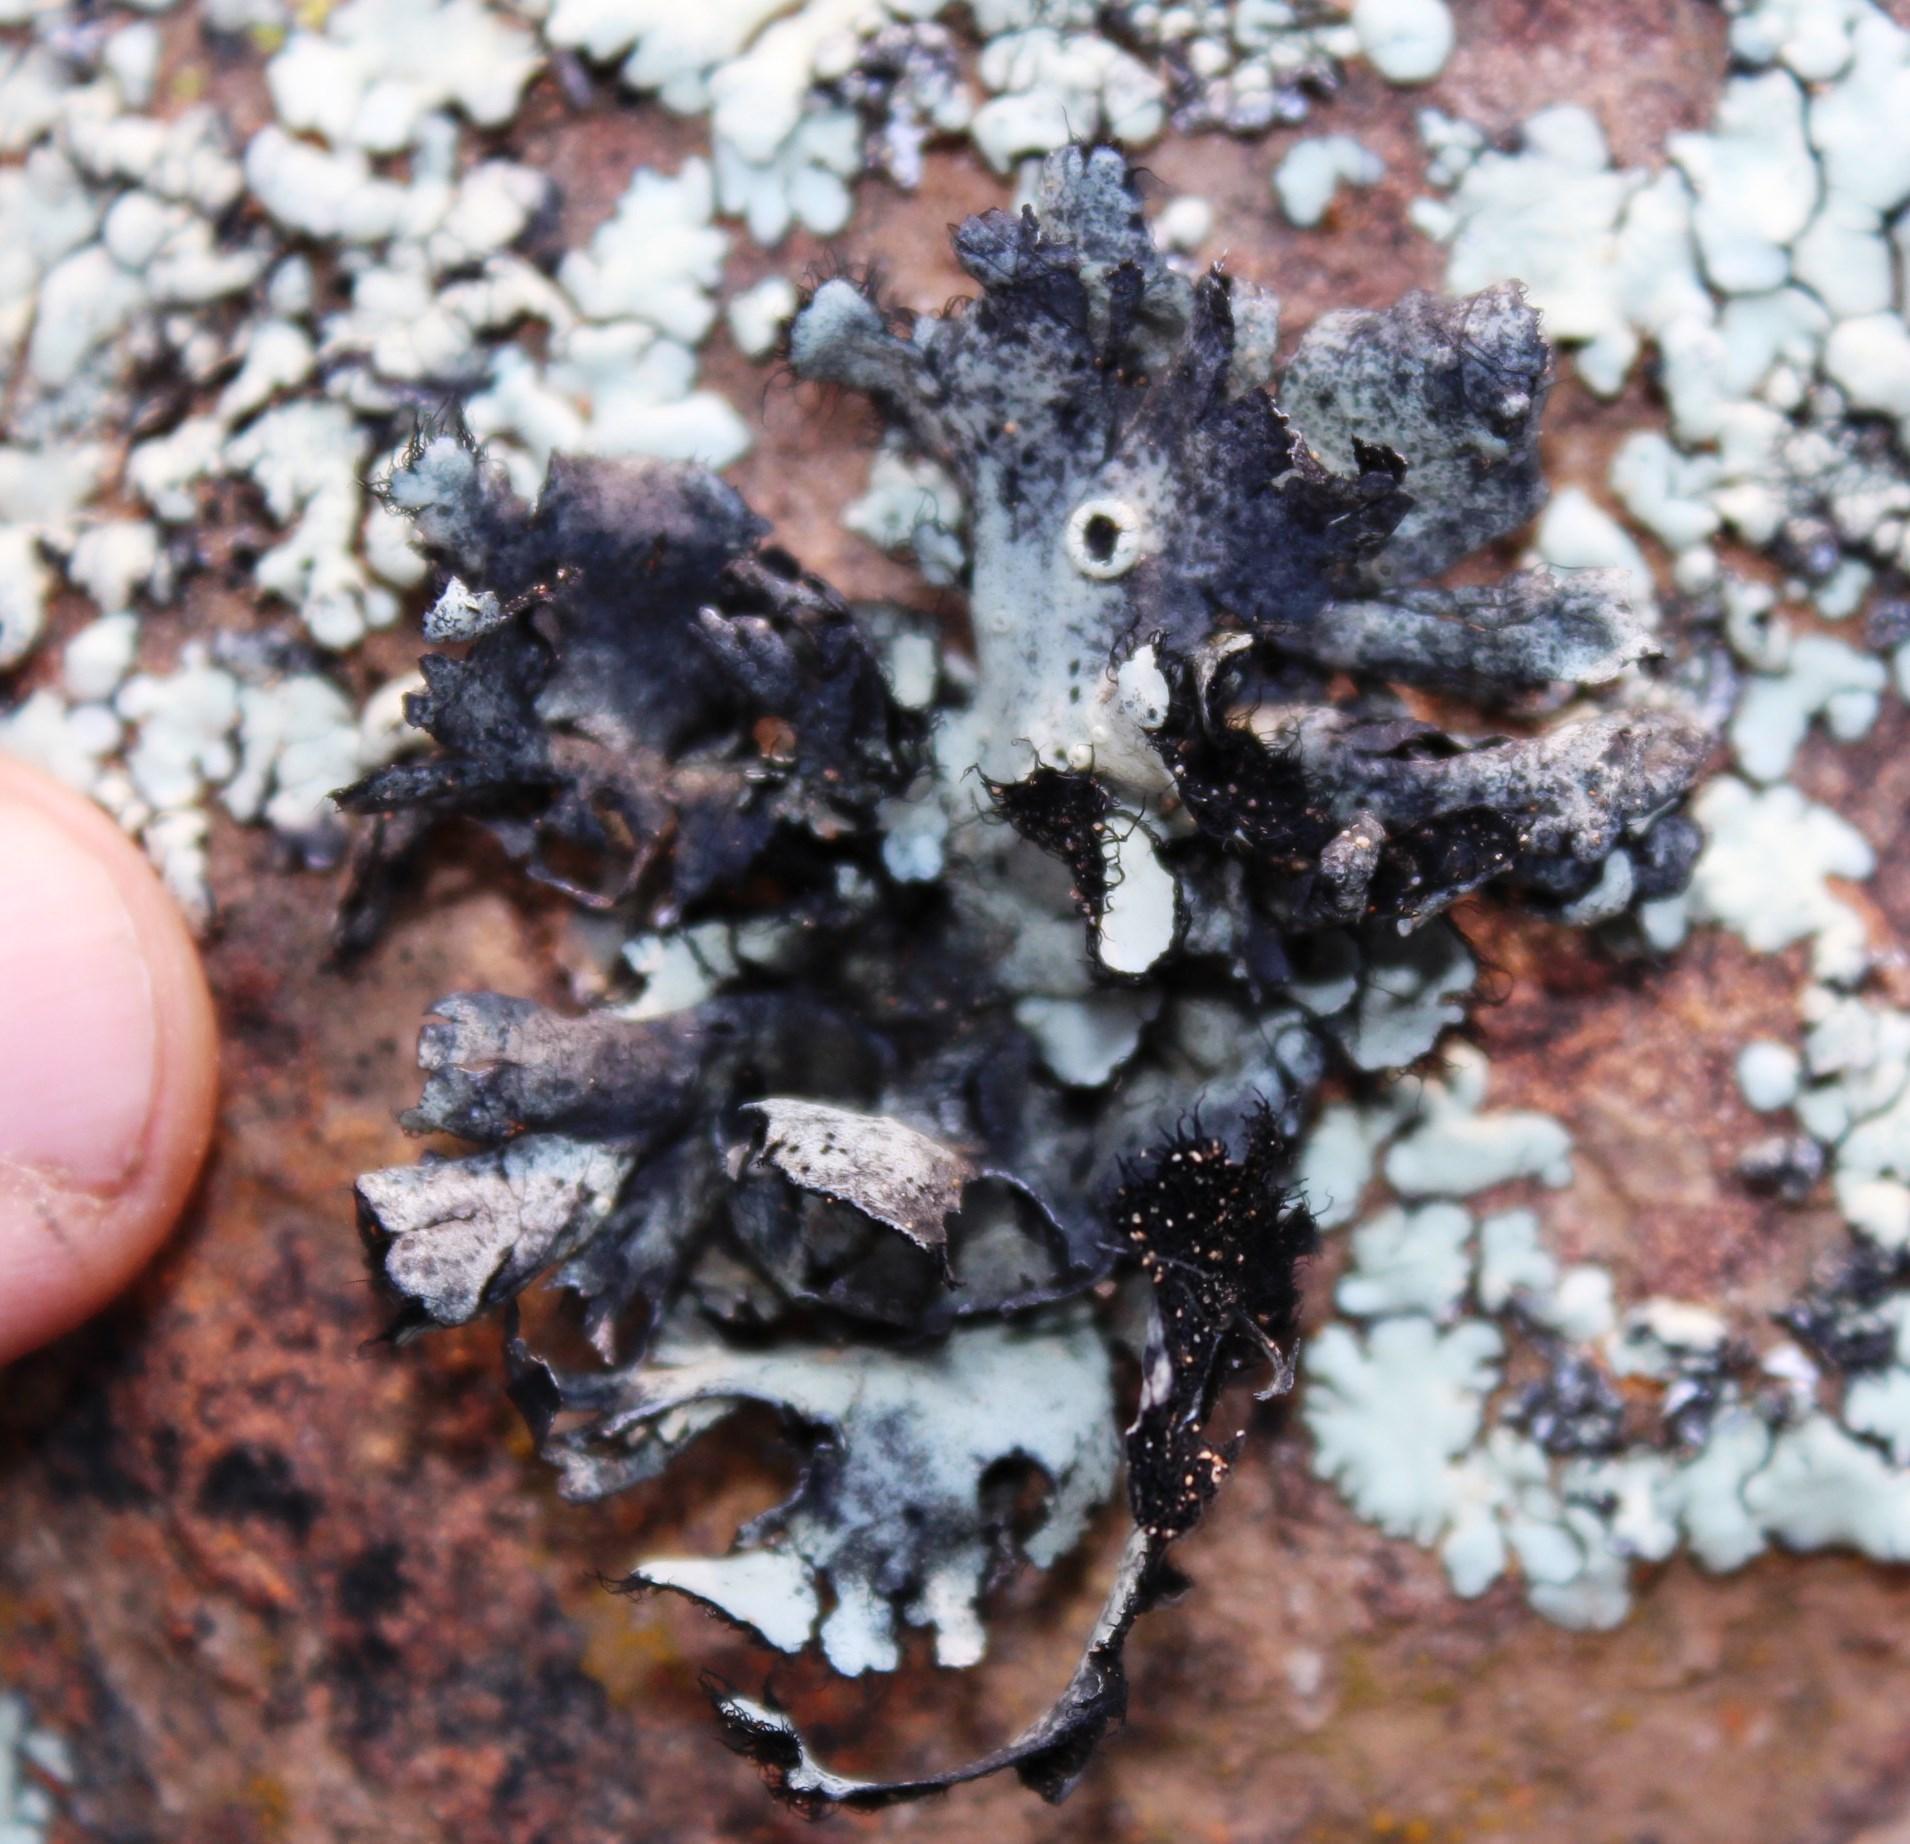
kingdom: Fungi
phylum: Ascomycota
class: Lecanoromycetes
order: Lecanorales
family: Parmeliaceae
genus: Xanthoparmelia
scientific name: Xanthoparmelia hottentotta
